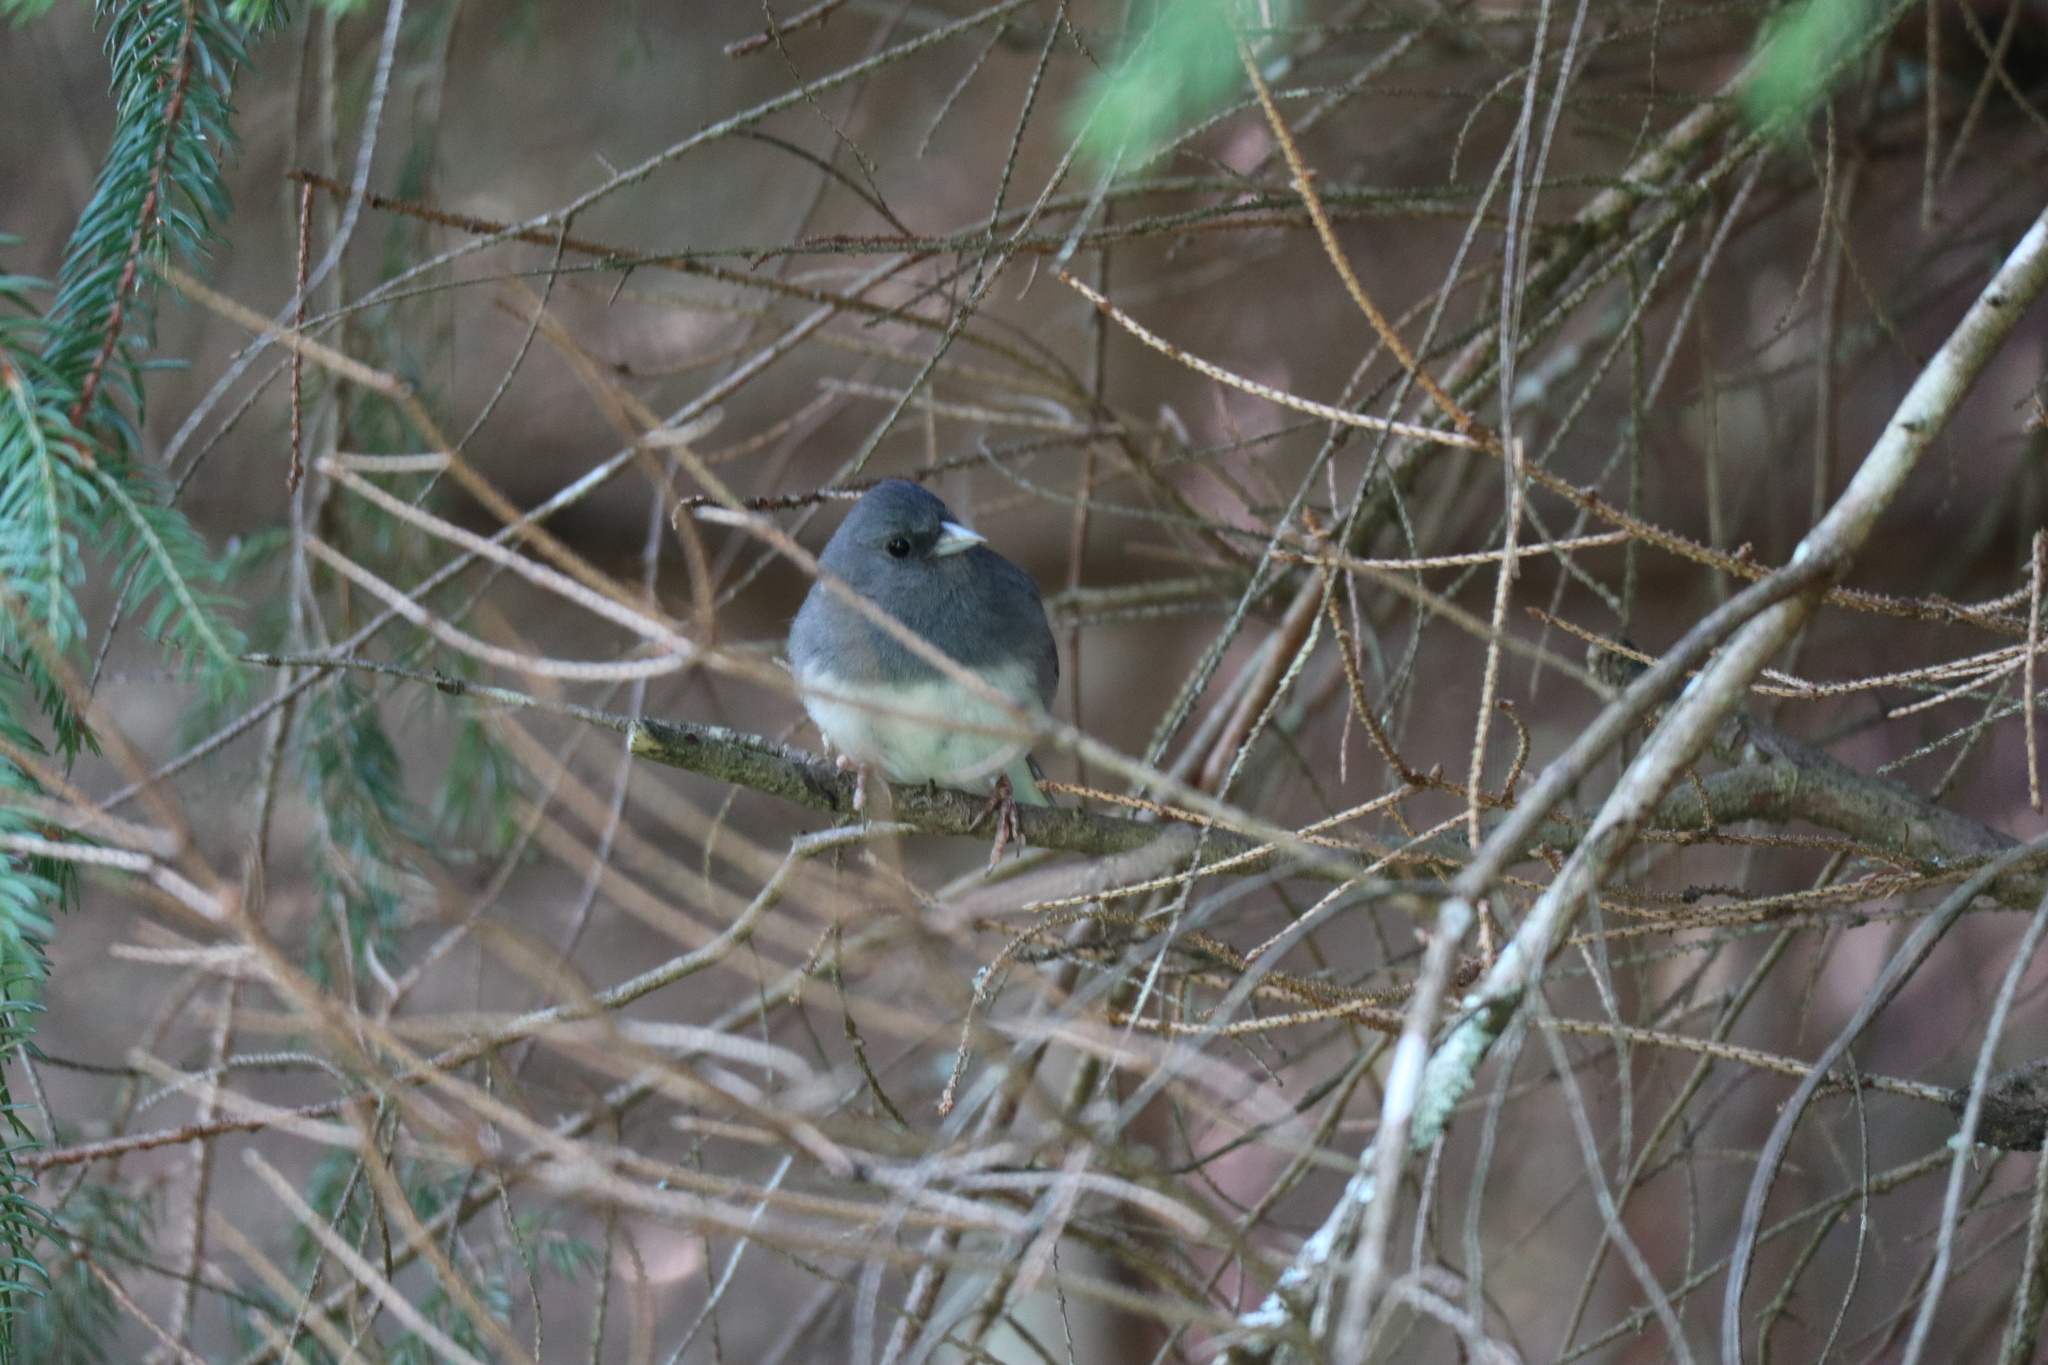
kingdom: Animalia
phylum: Chordata
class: Aves
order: Passeriformes
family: Passerellidae
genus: Junco
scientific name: Junco hyemalis
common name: Dark-eyed junco
